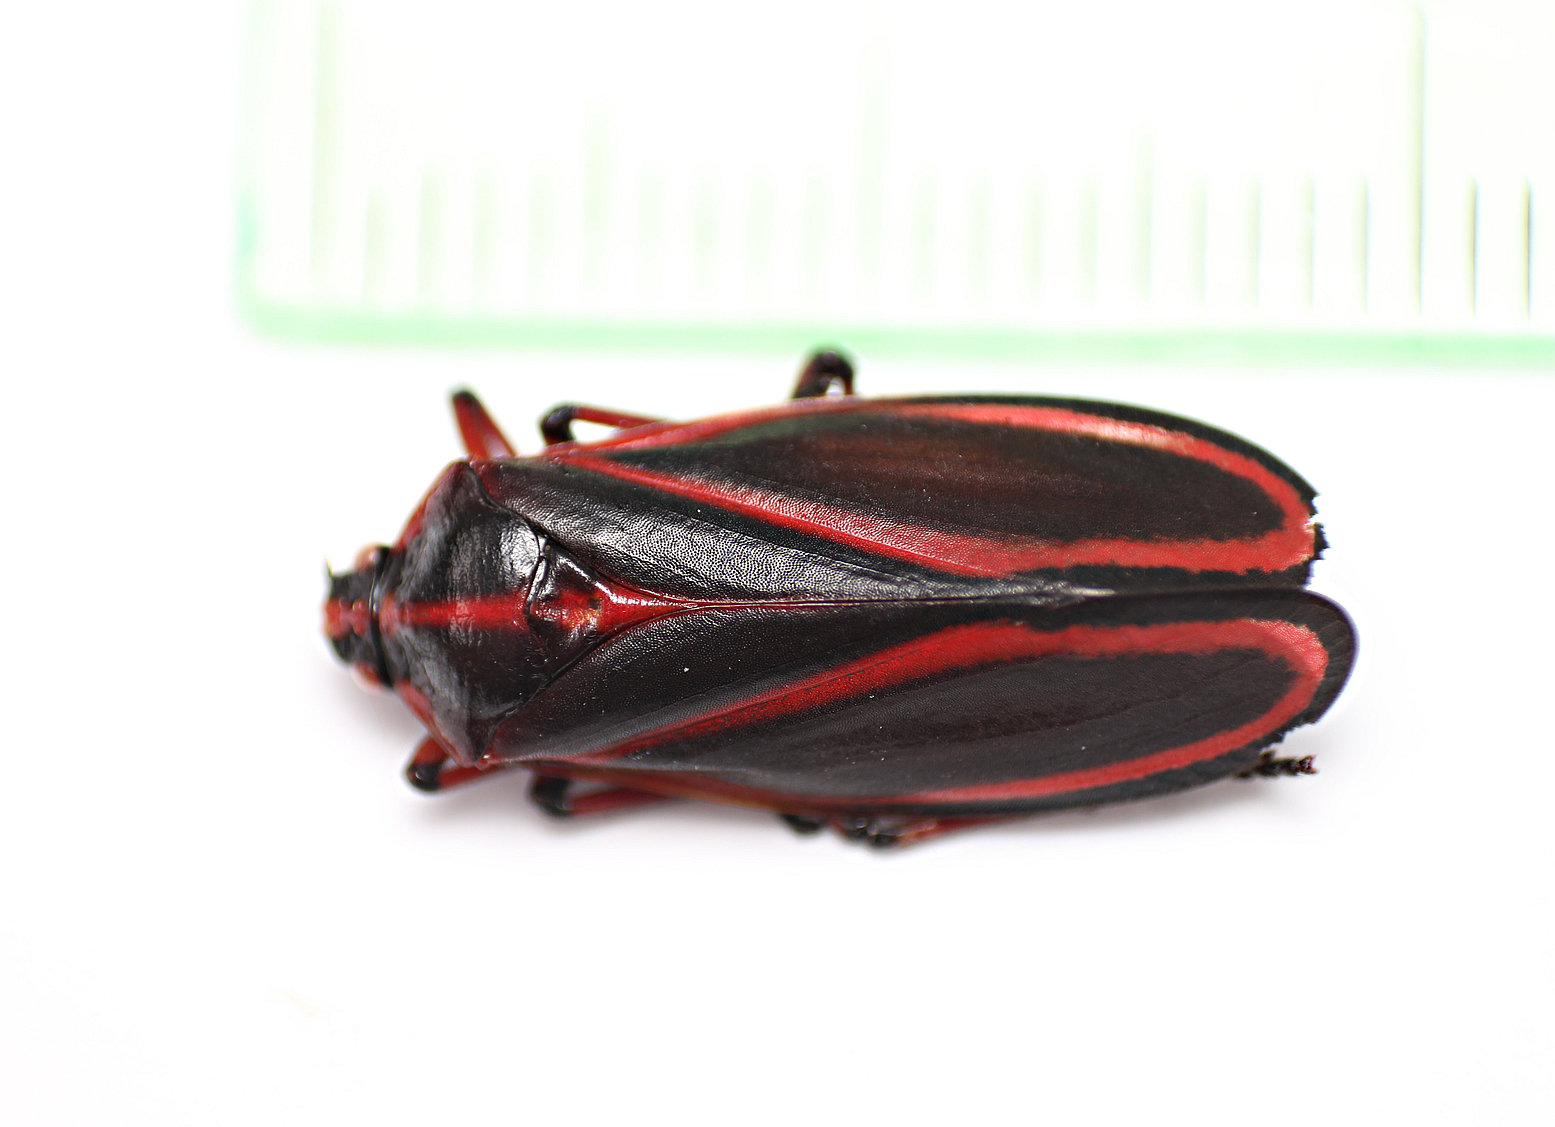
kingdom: Animalia
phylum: Arthropoda
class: Insecta
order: Hemiptera
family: Cercopidae
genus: Typeschata
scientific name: Typeschata
